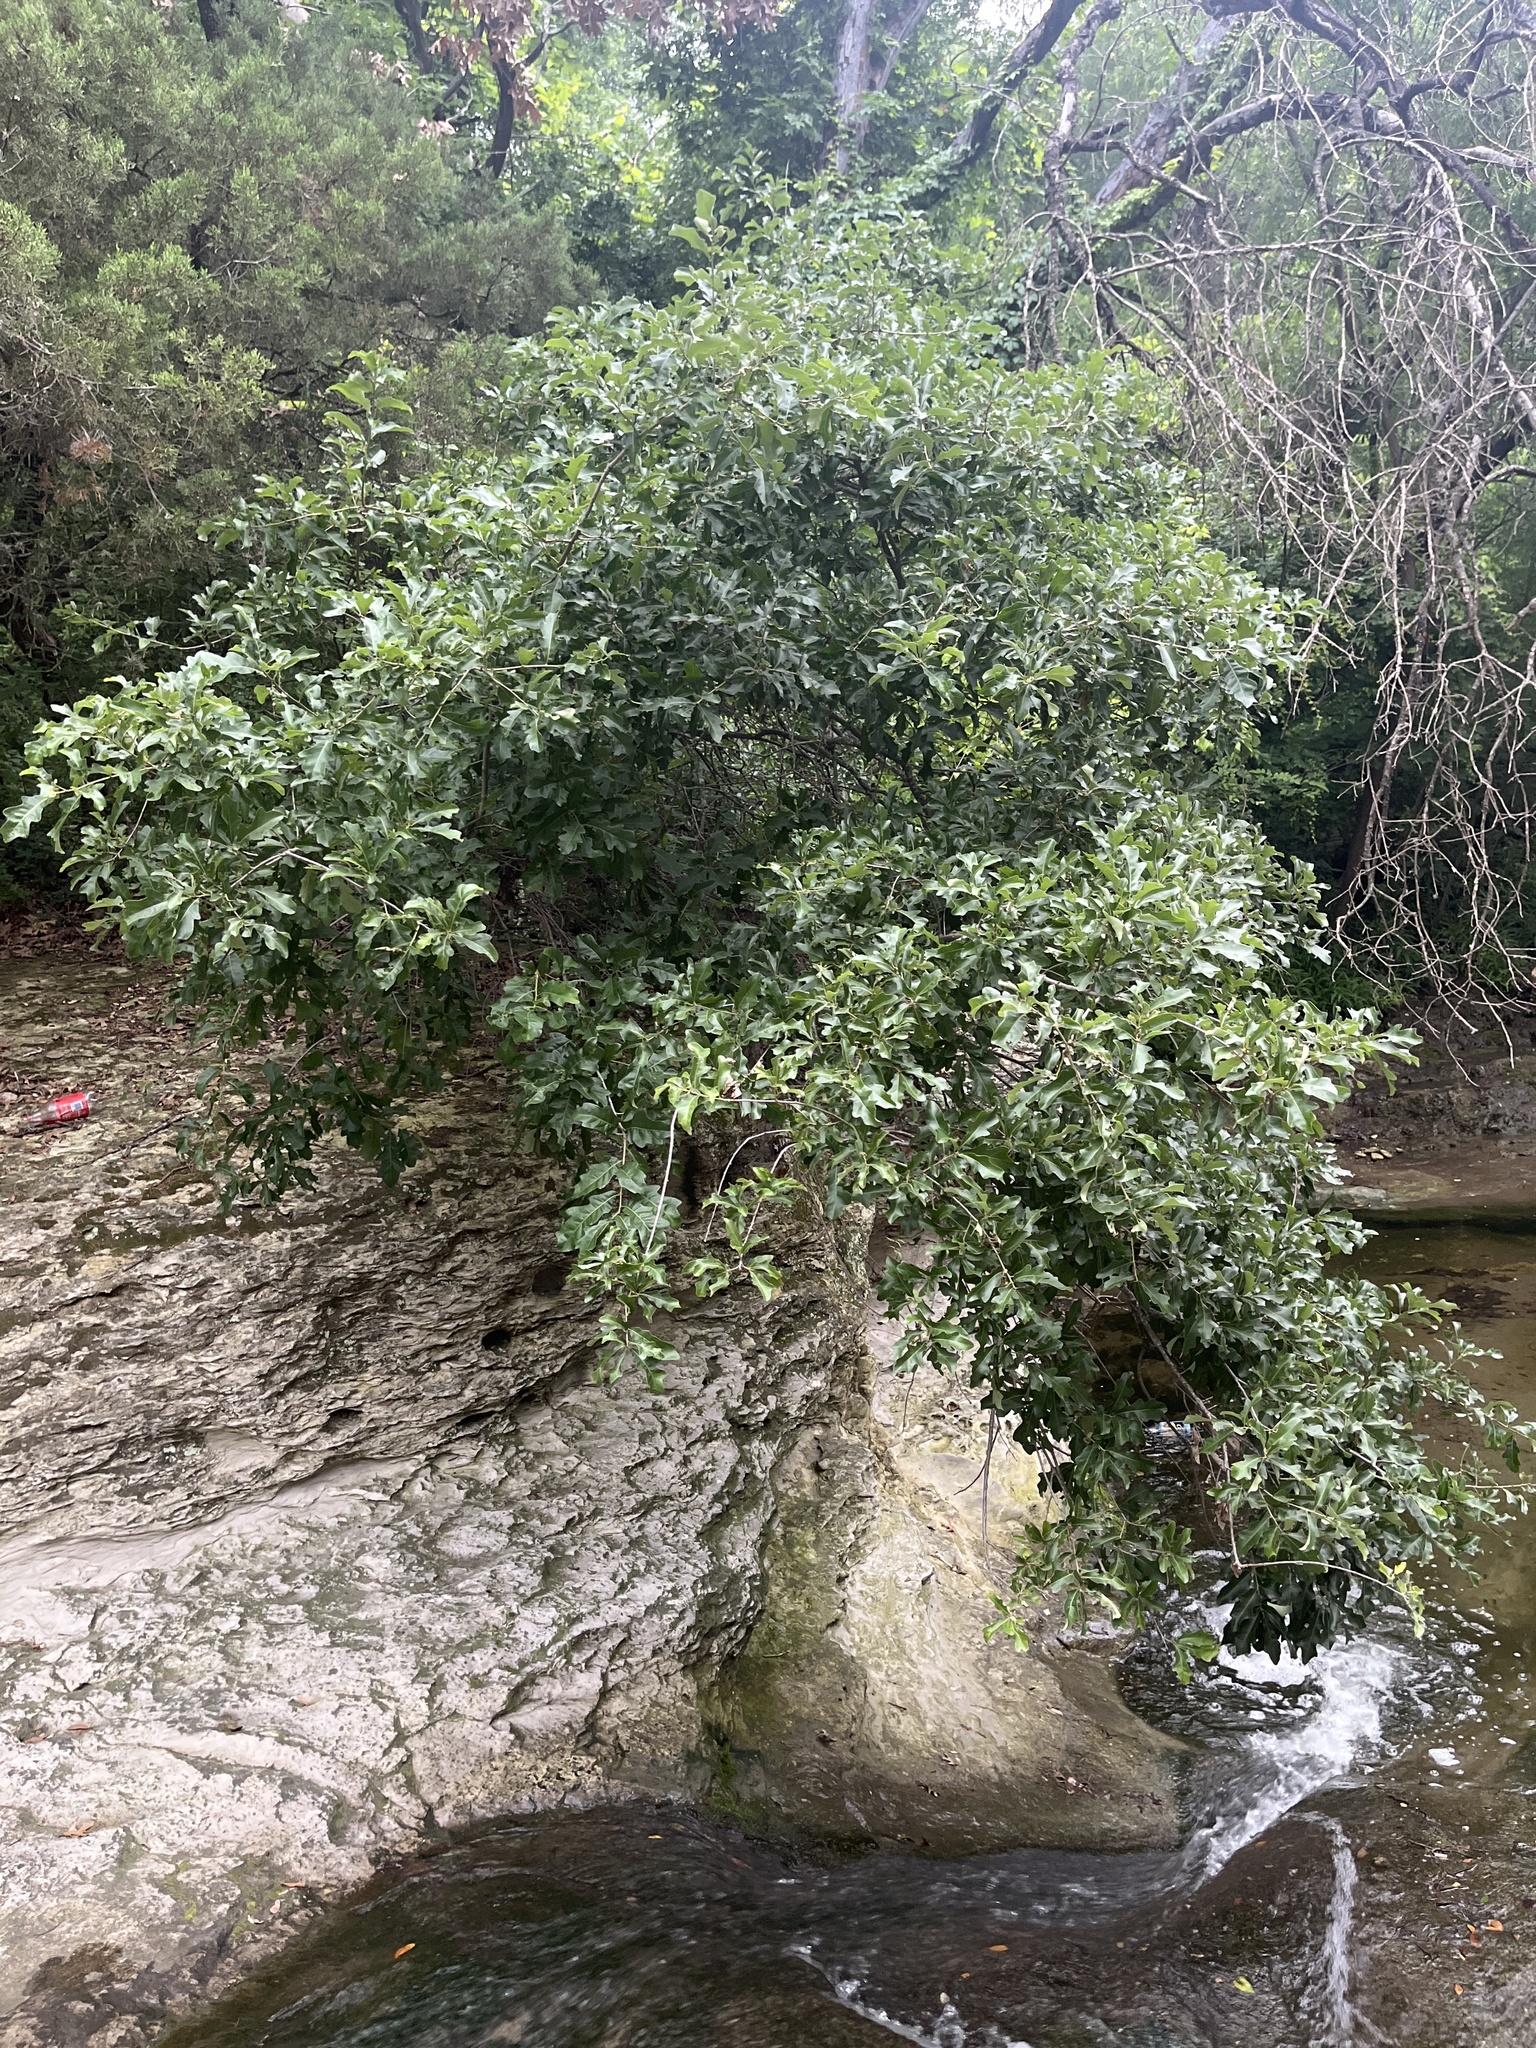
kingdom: Plantae
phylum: Tracheophyta
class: Magnoliopsida
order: Fagales
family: Fagaceae
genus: Quercus
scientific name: Quercus sinuata
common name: Durand oak
